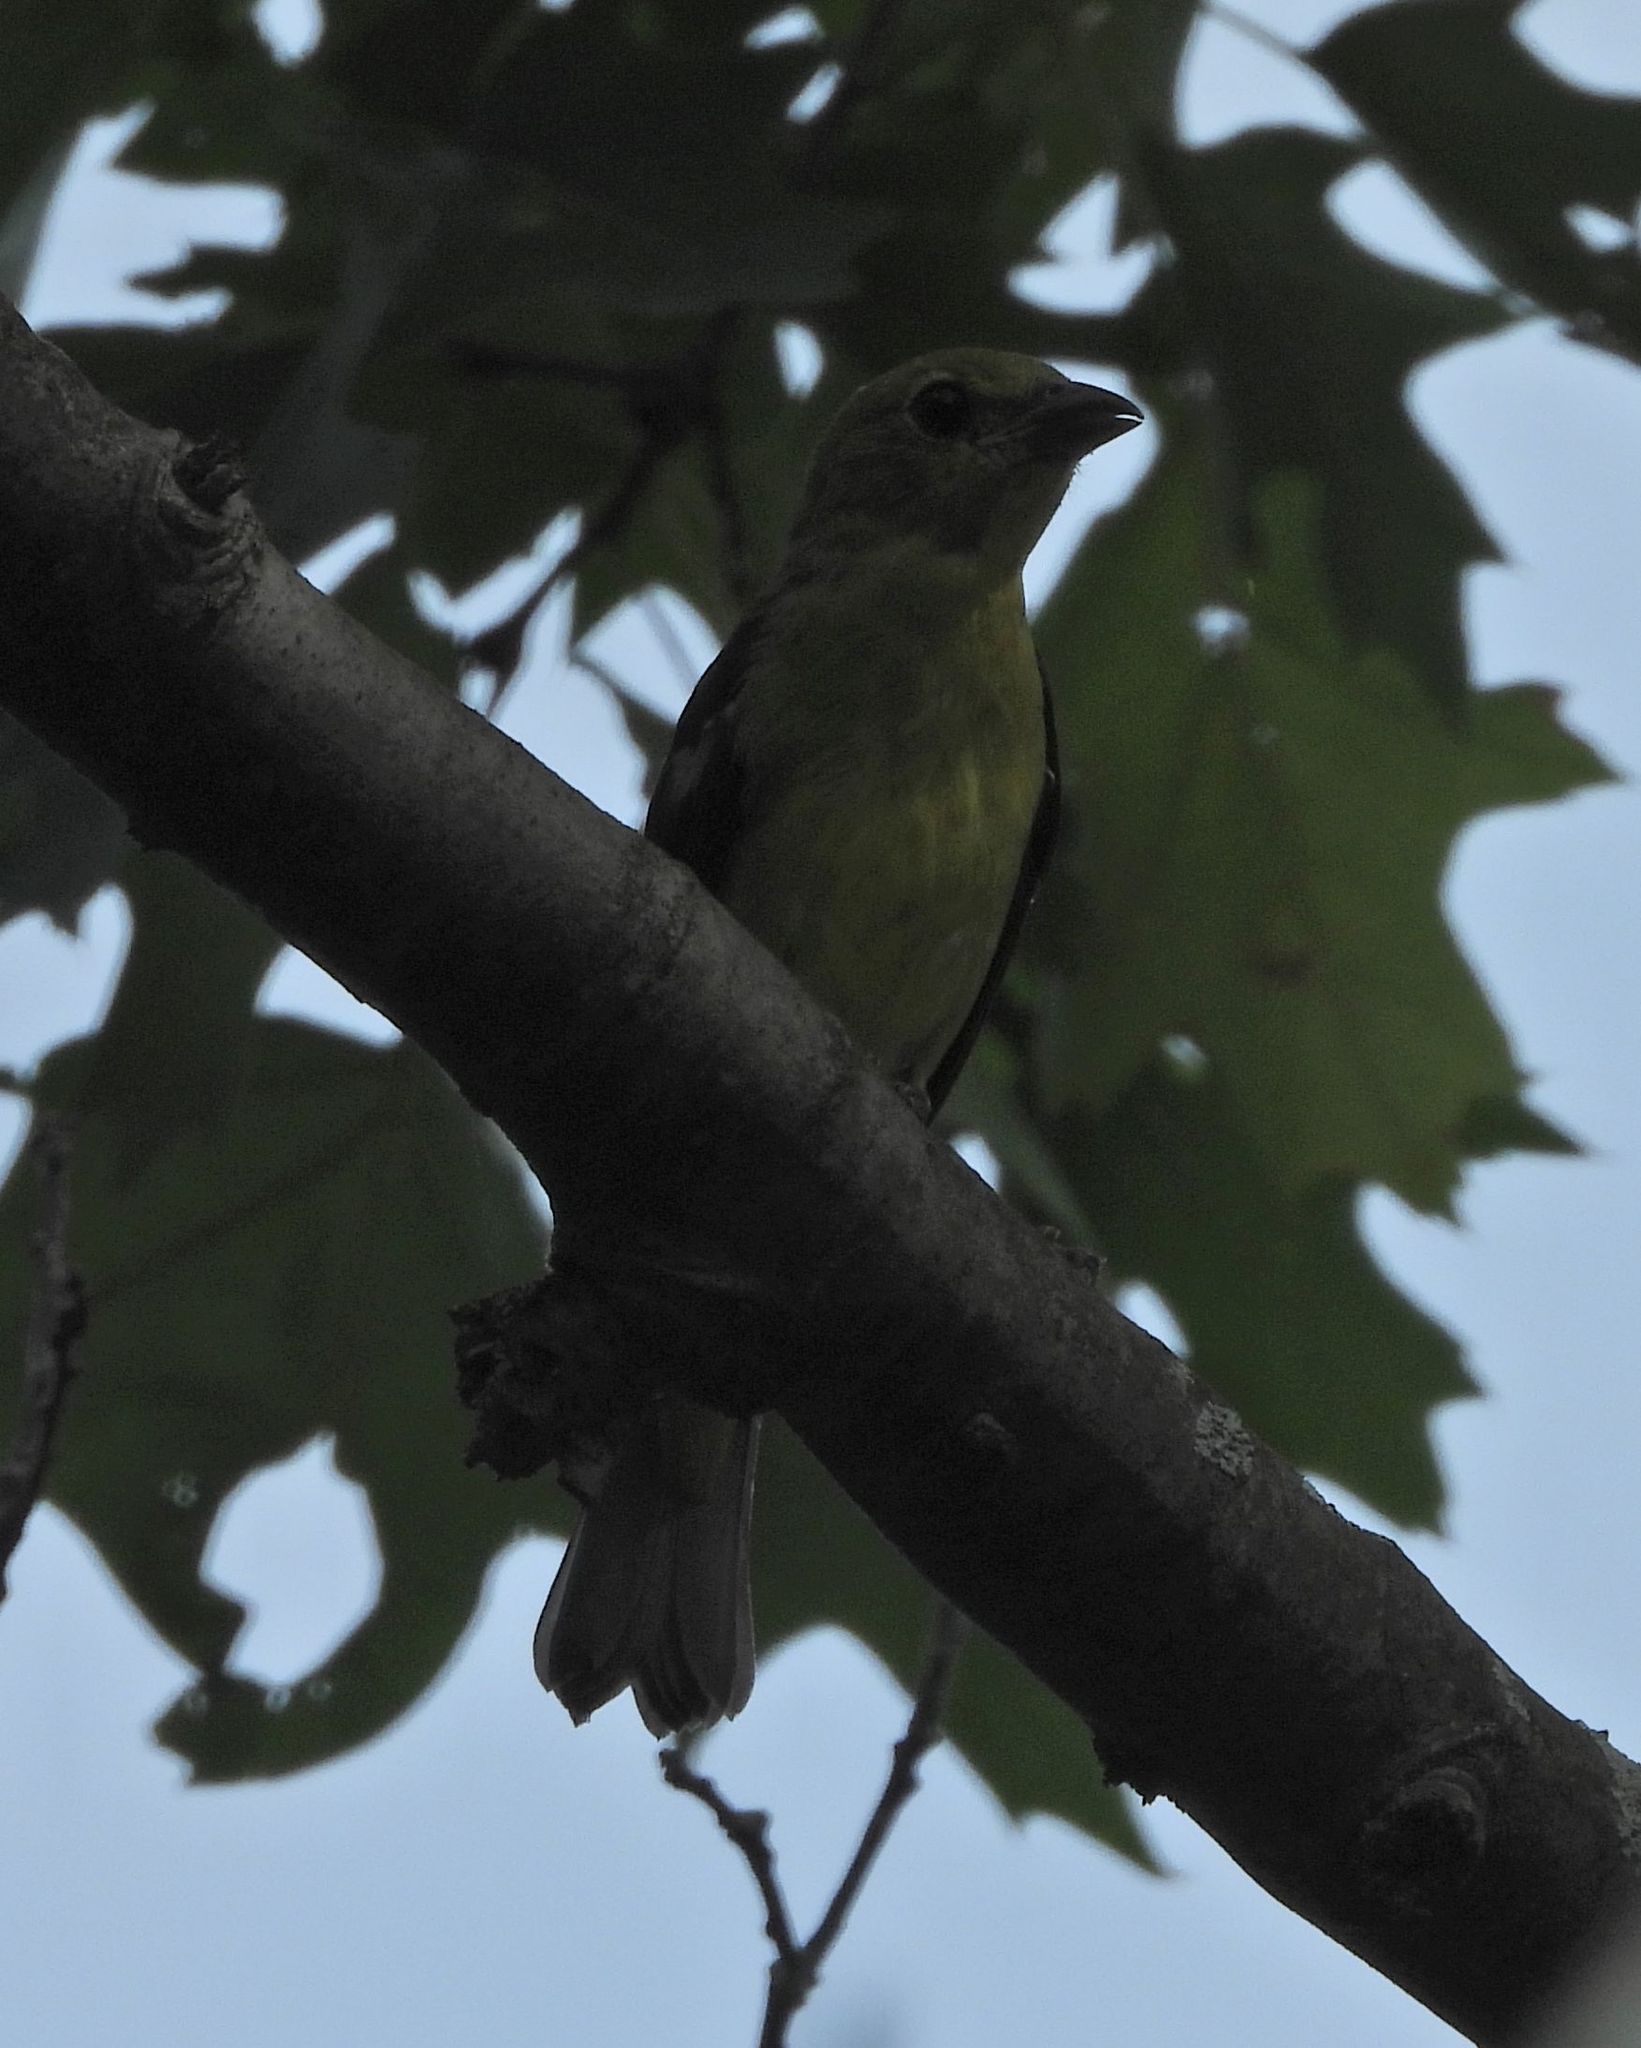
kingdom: Animalia
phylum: Chordata
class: Aves
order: Passeriformes
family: Cardinalidae
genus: Piranga
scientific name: Piranga olivacea
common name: Scarlet tanager
